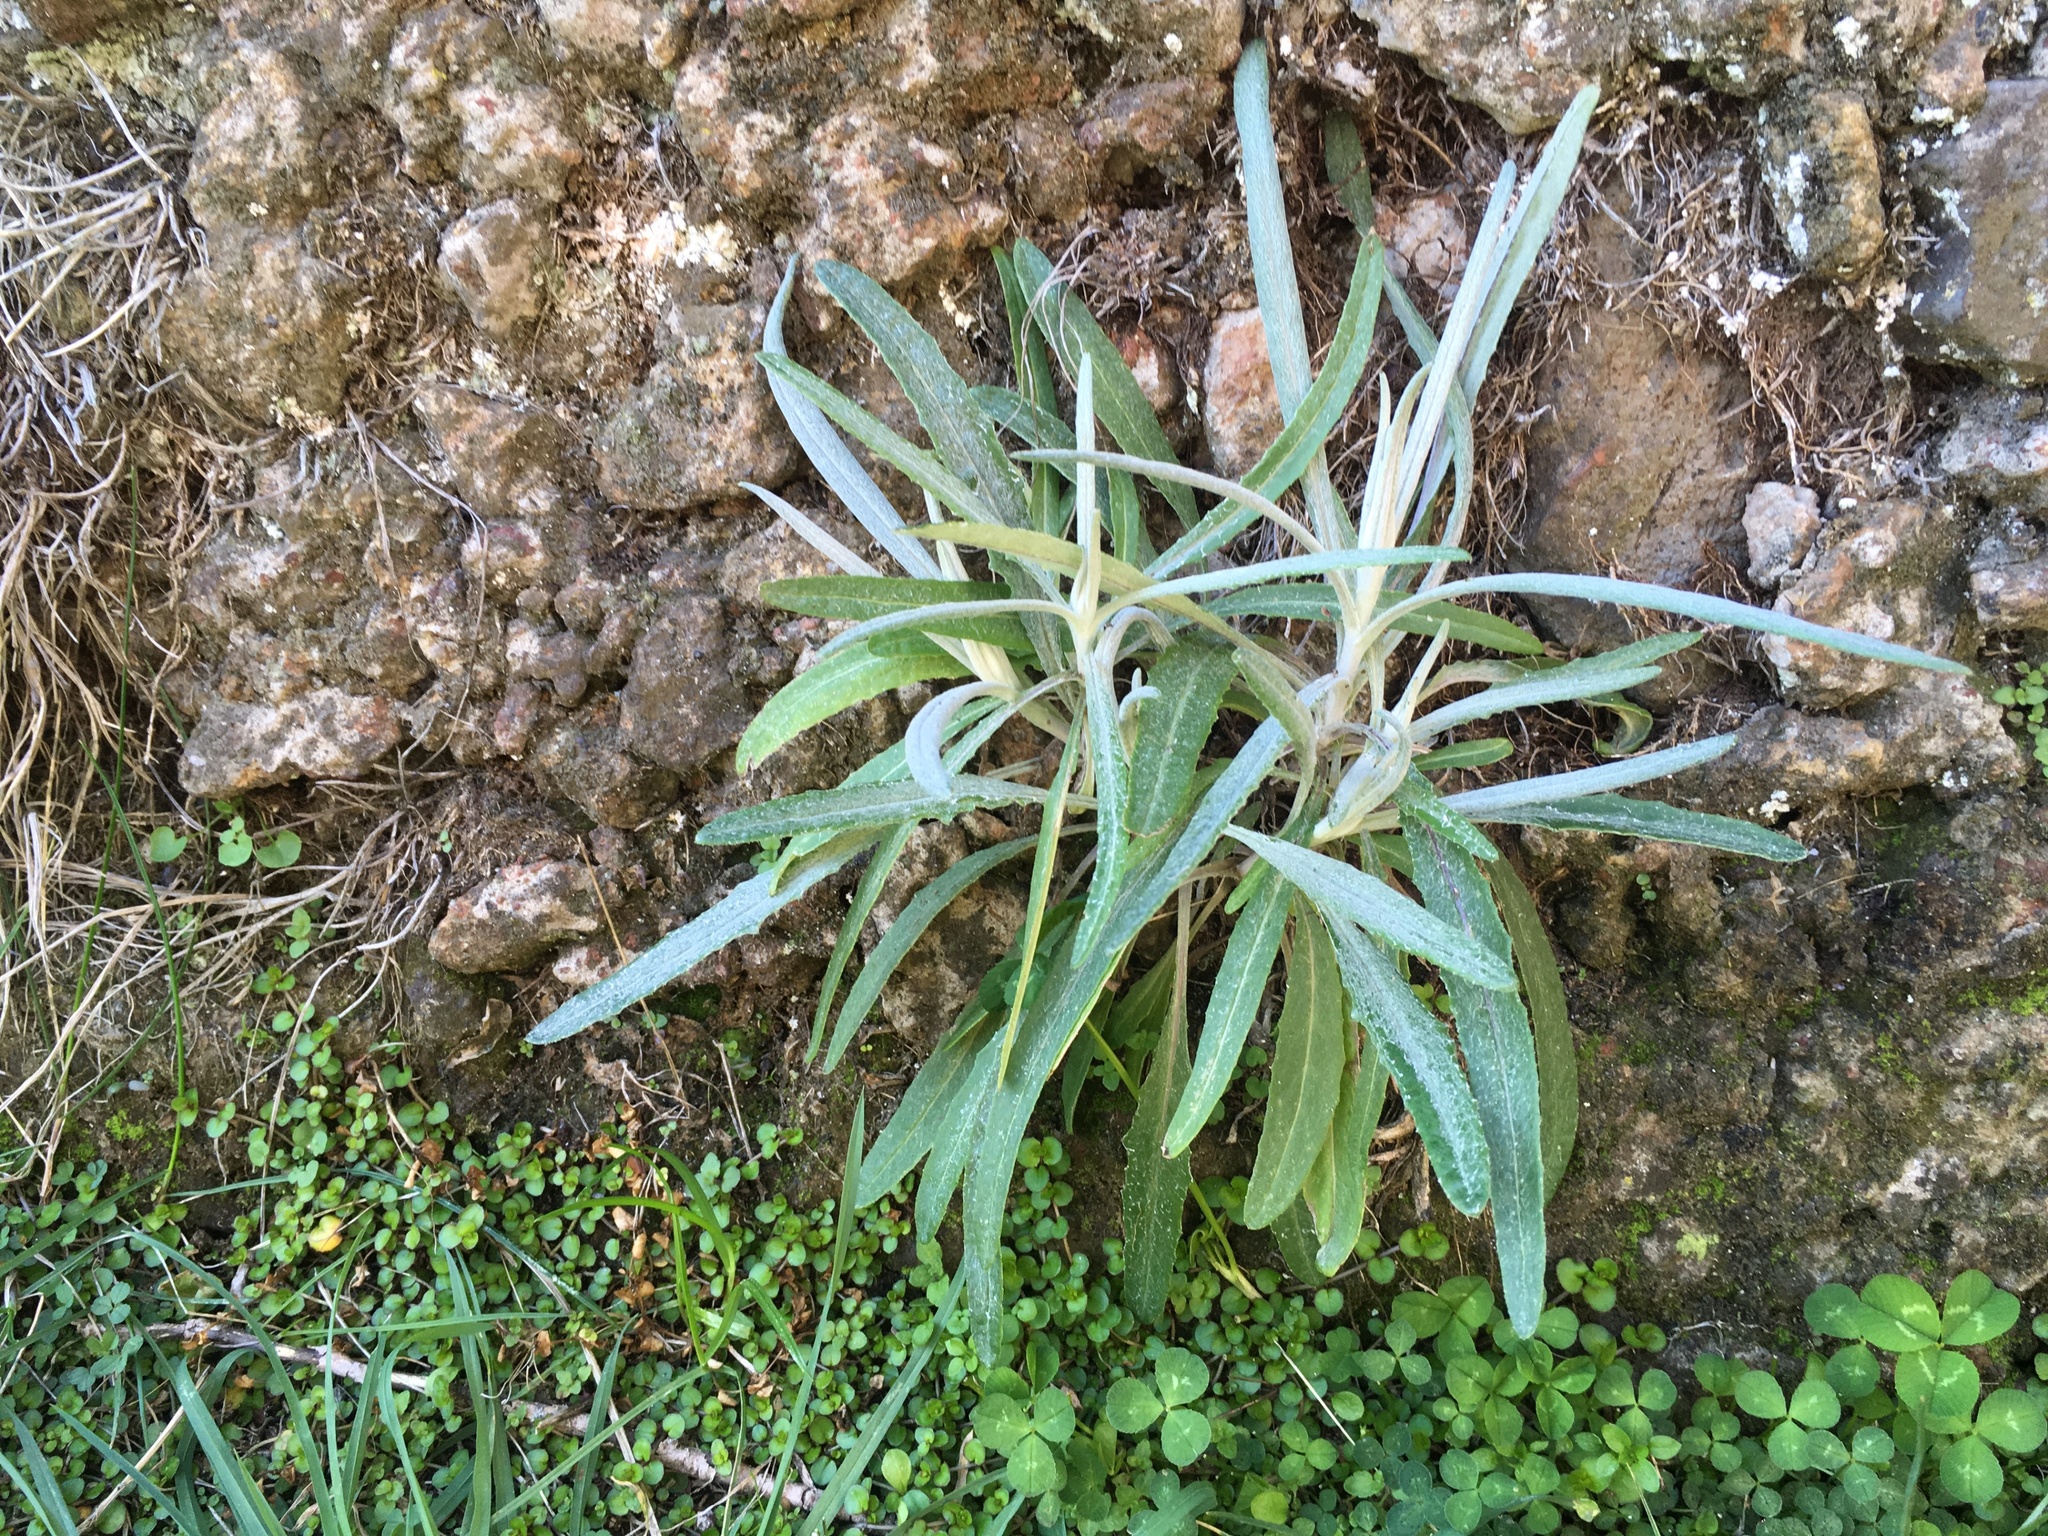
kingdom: Plantae
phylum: Tracheophyta
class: Magnoliopsida
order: Asterales
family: Asteraceae
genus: Senecio
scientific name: Senecio quadridentatus
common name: Cotton fireweed
